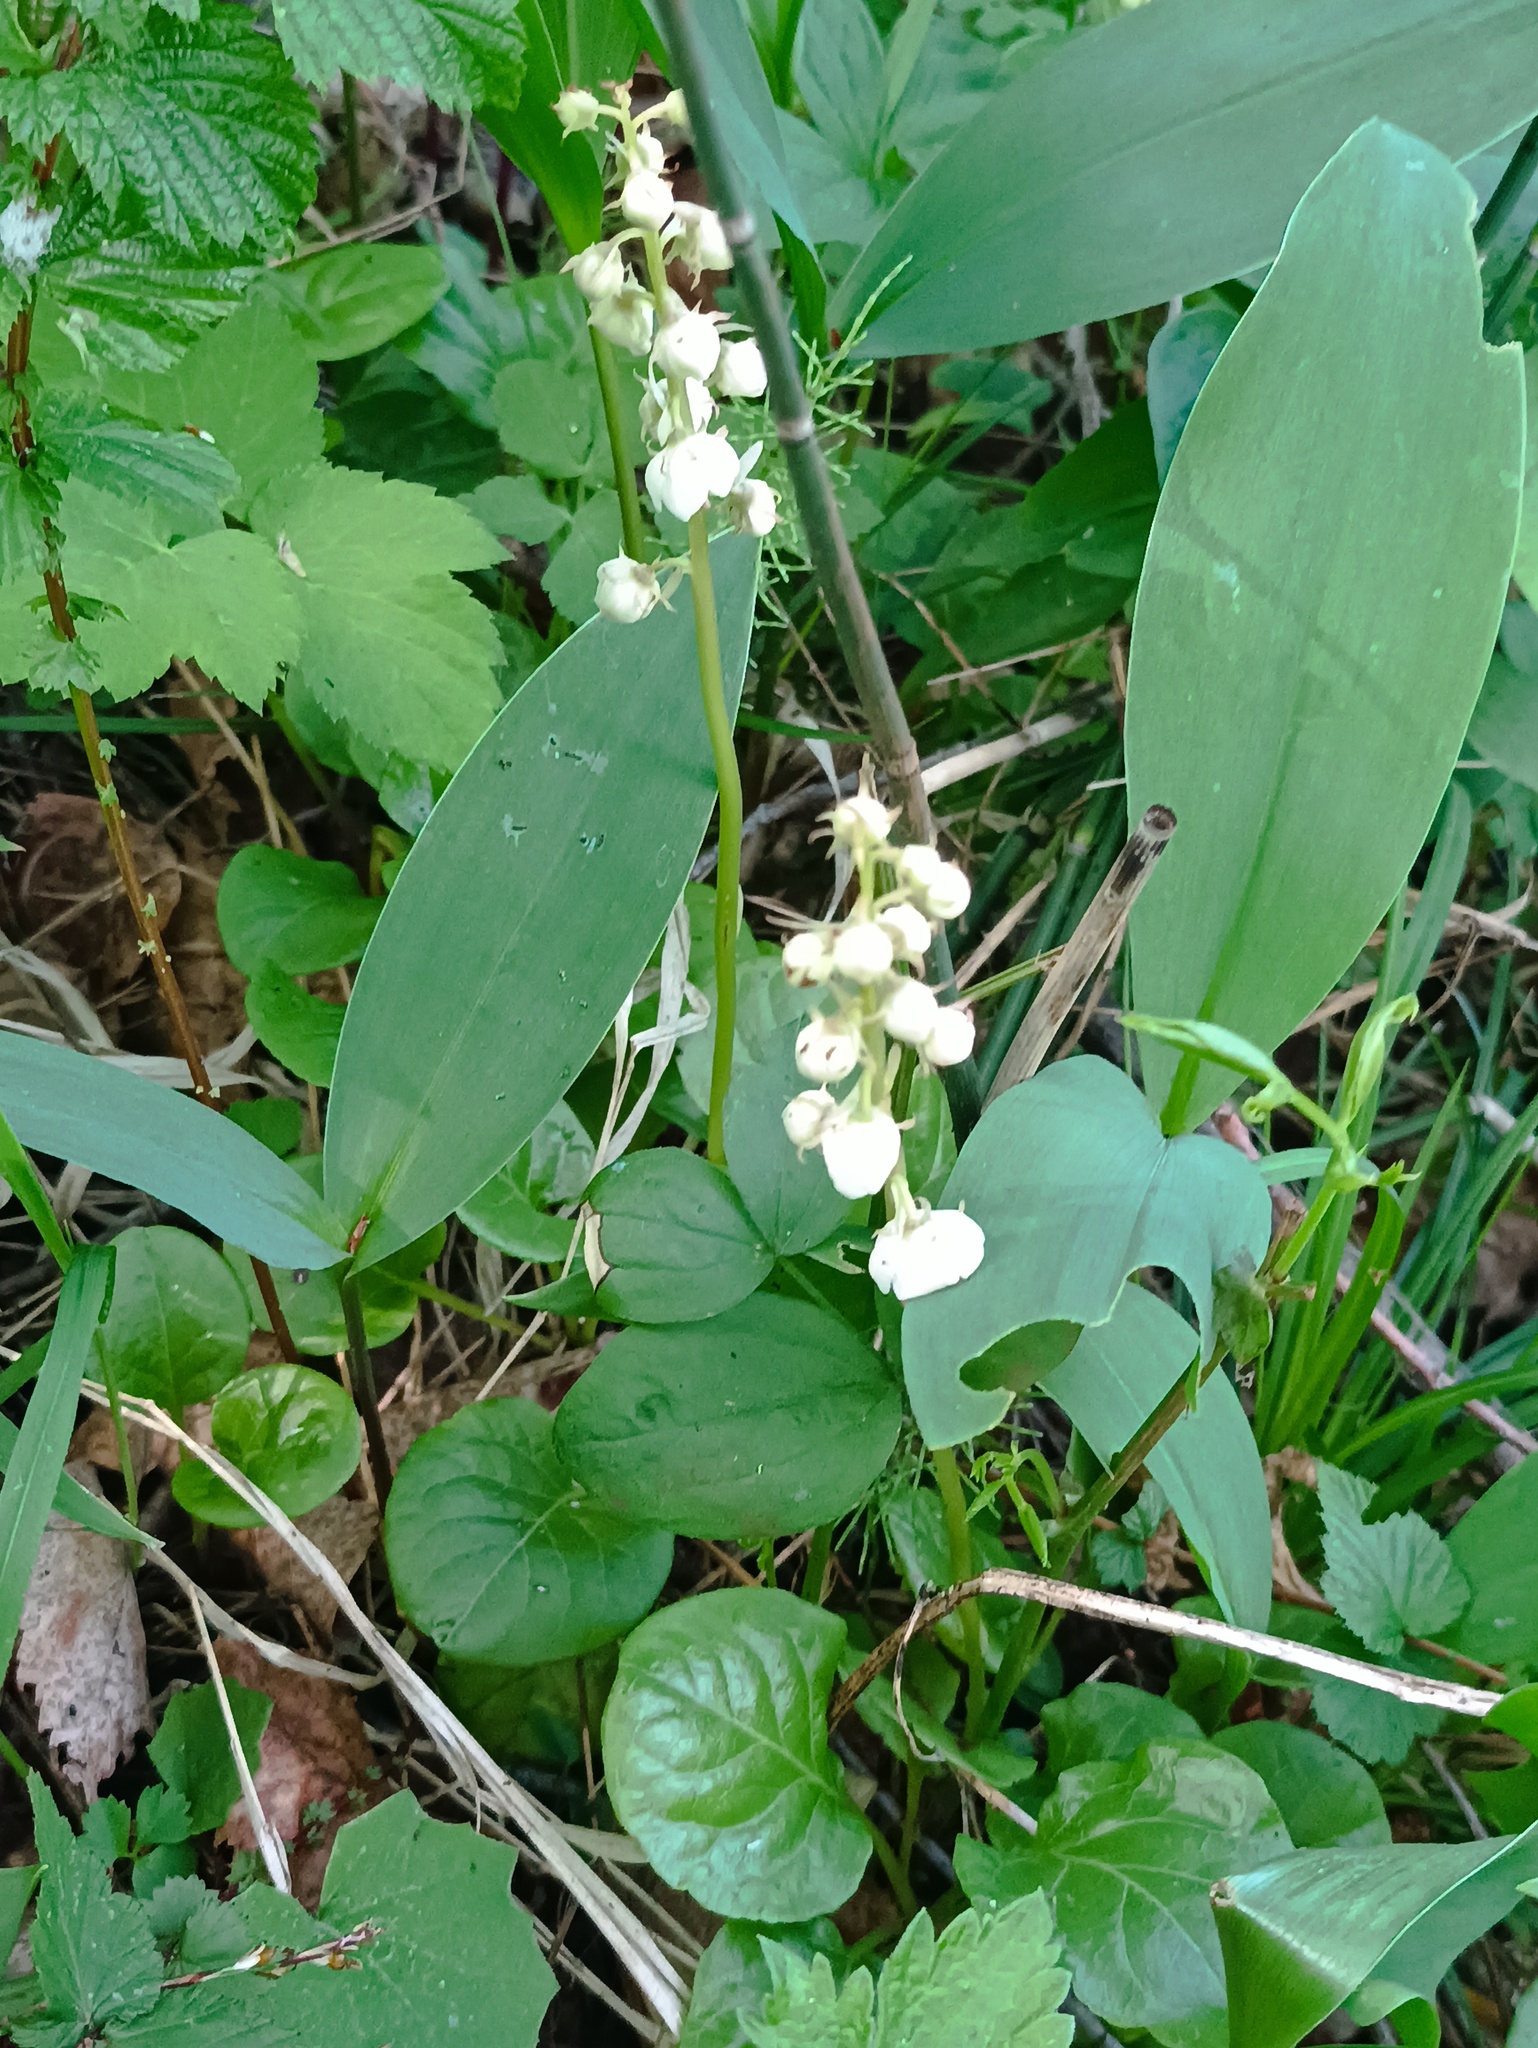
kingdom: Plantae
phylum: Tracheophyta
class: Magnoliopsida
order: Ericales
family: Ericaceae
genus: Pyrola
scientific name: Pyrola rotundifolia
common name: Round-leaved wintergreen
